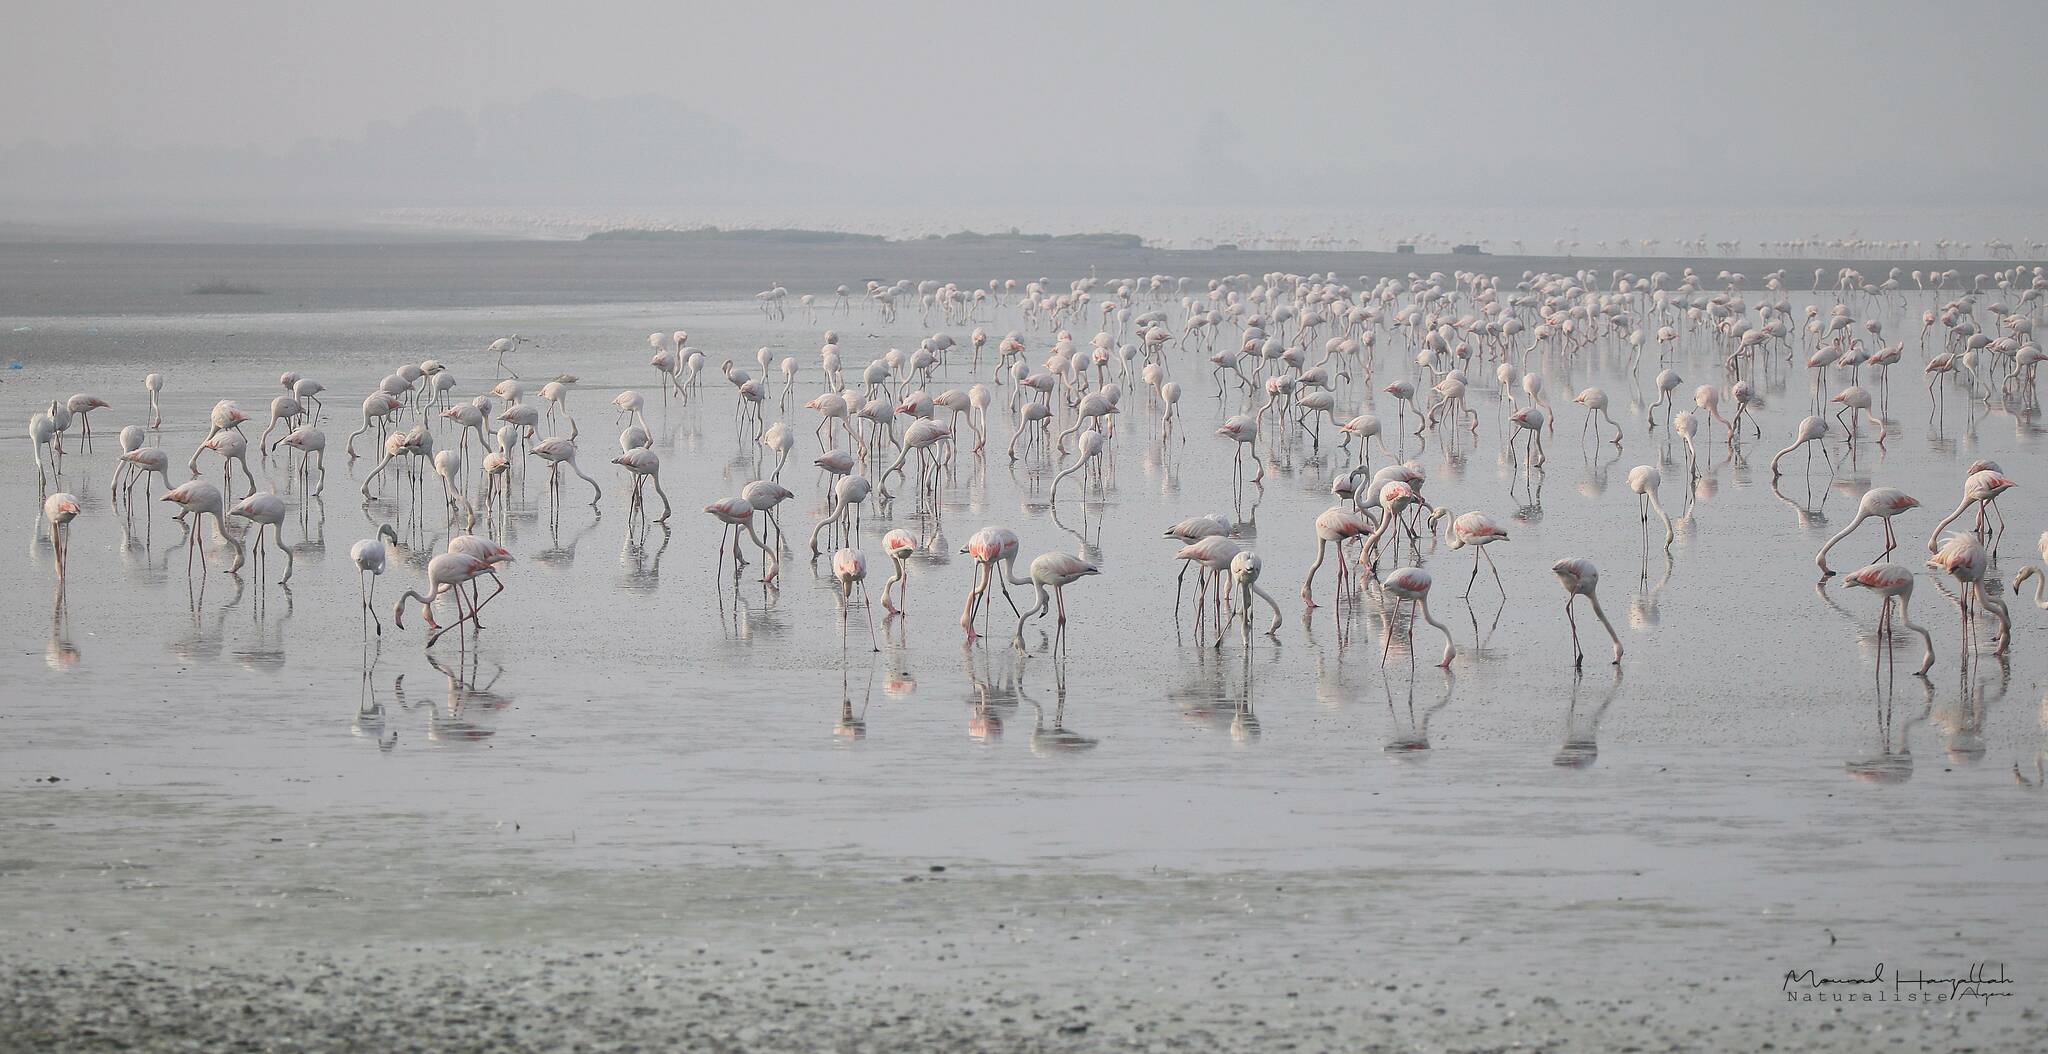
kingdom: Animalia
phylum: Chordata
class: Aves
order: Phoenicopteriformes
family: Phoenicopteridae
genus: Phoenicopterus
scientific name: Phoenicopterus roseus
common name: Greater flamingo
